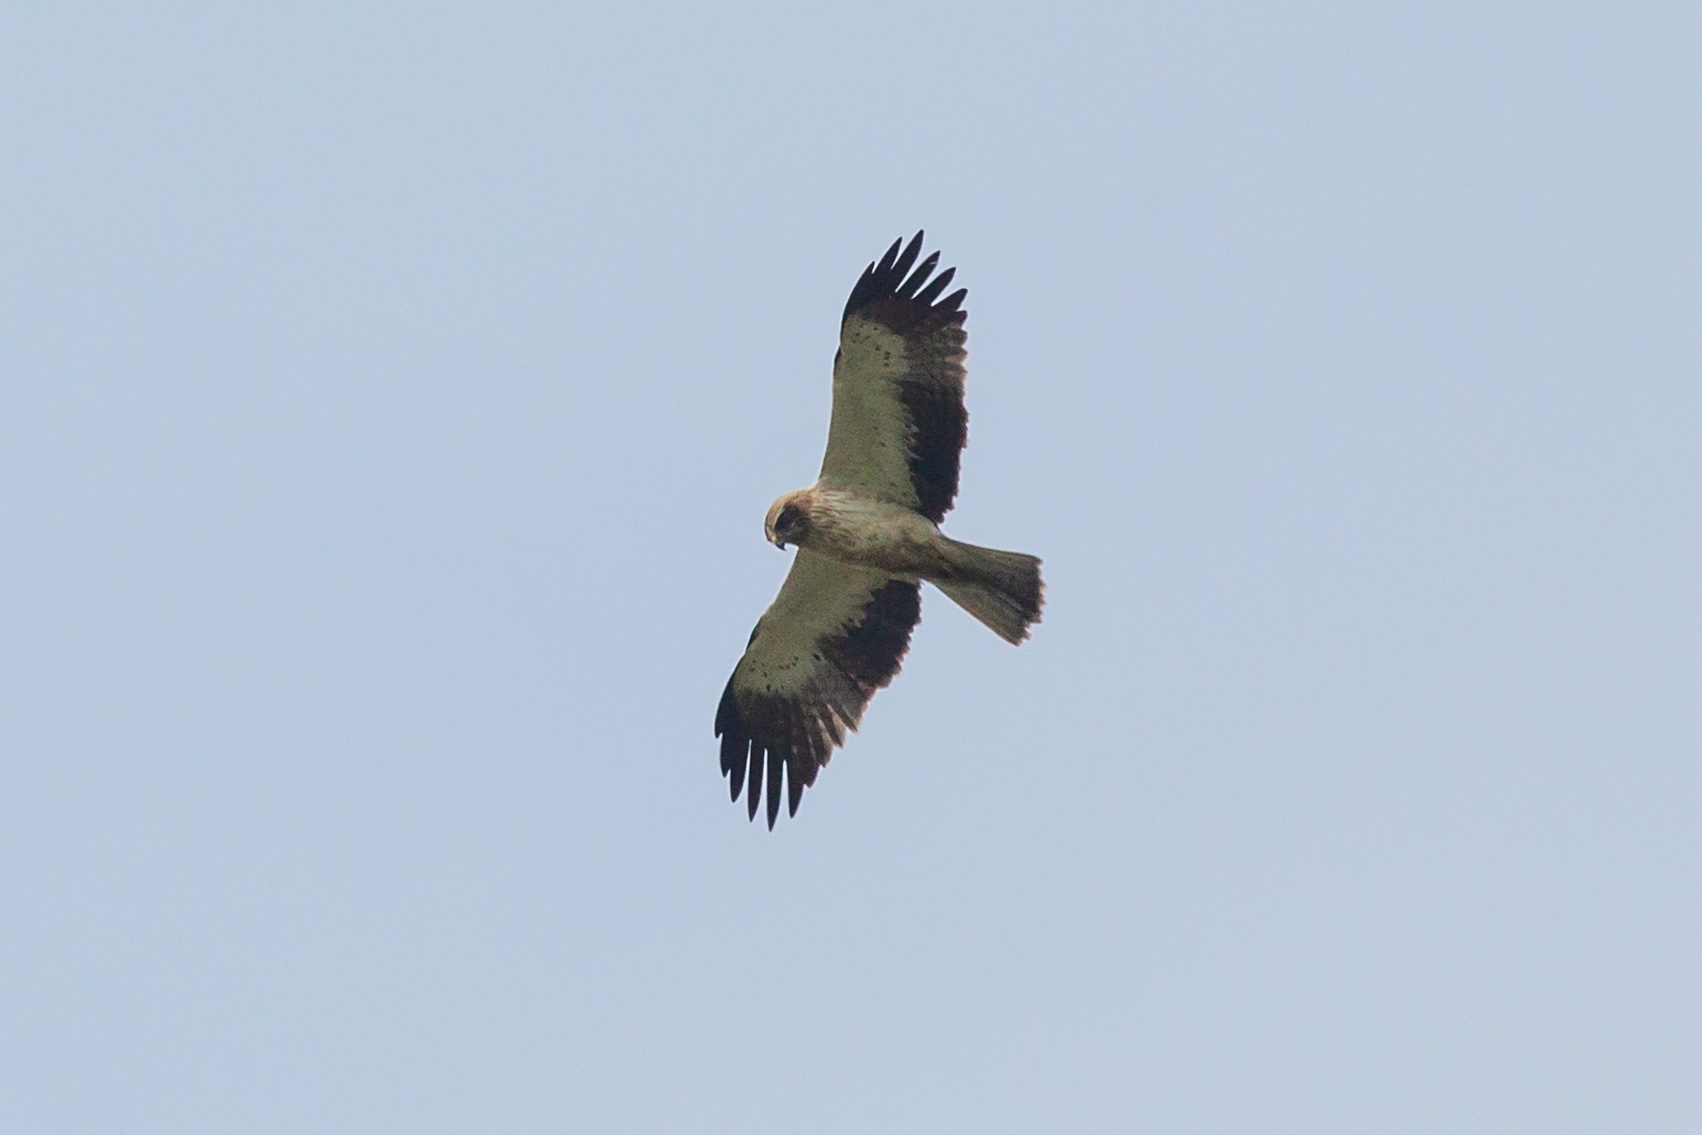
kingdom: Animalia
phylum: Chordata
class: Aves
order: Accipitriformes
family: Accipitridae
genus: Hieraaetus
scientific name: Hieraaetus pennatus
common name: Booted eagle
